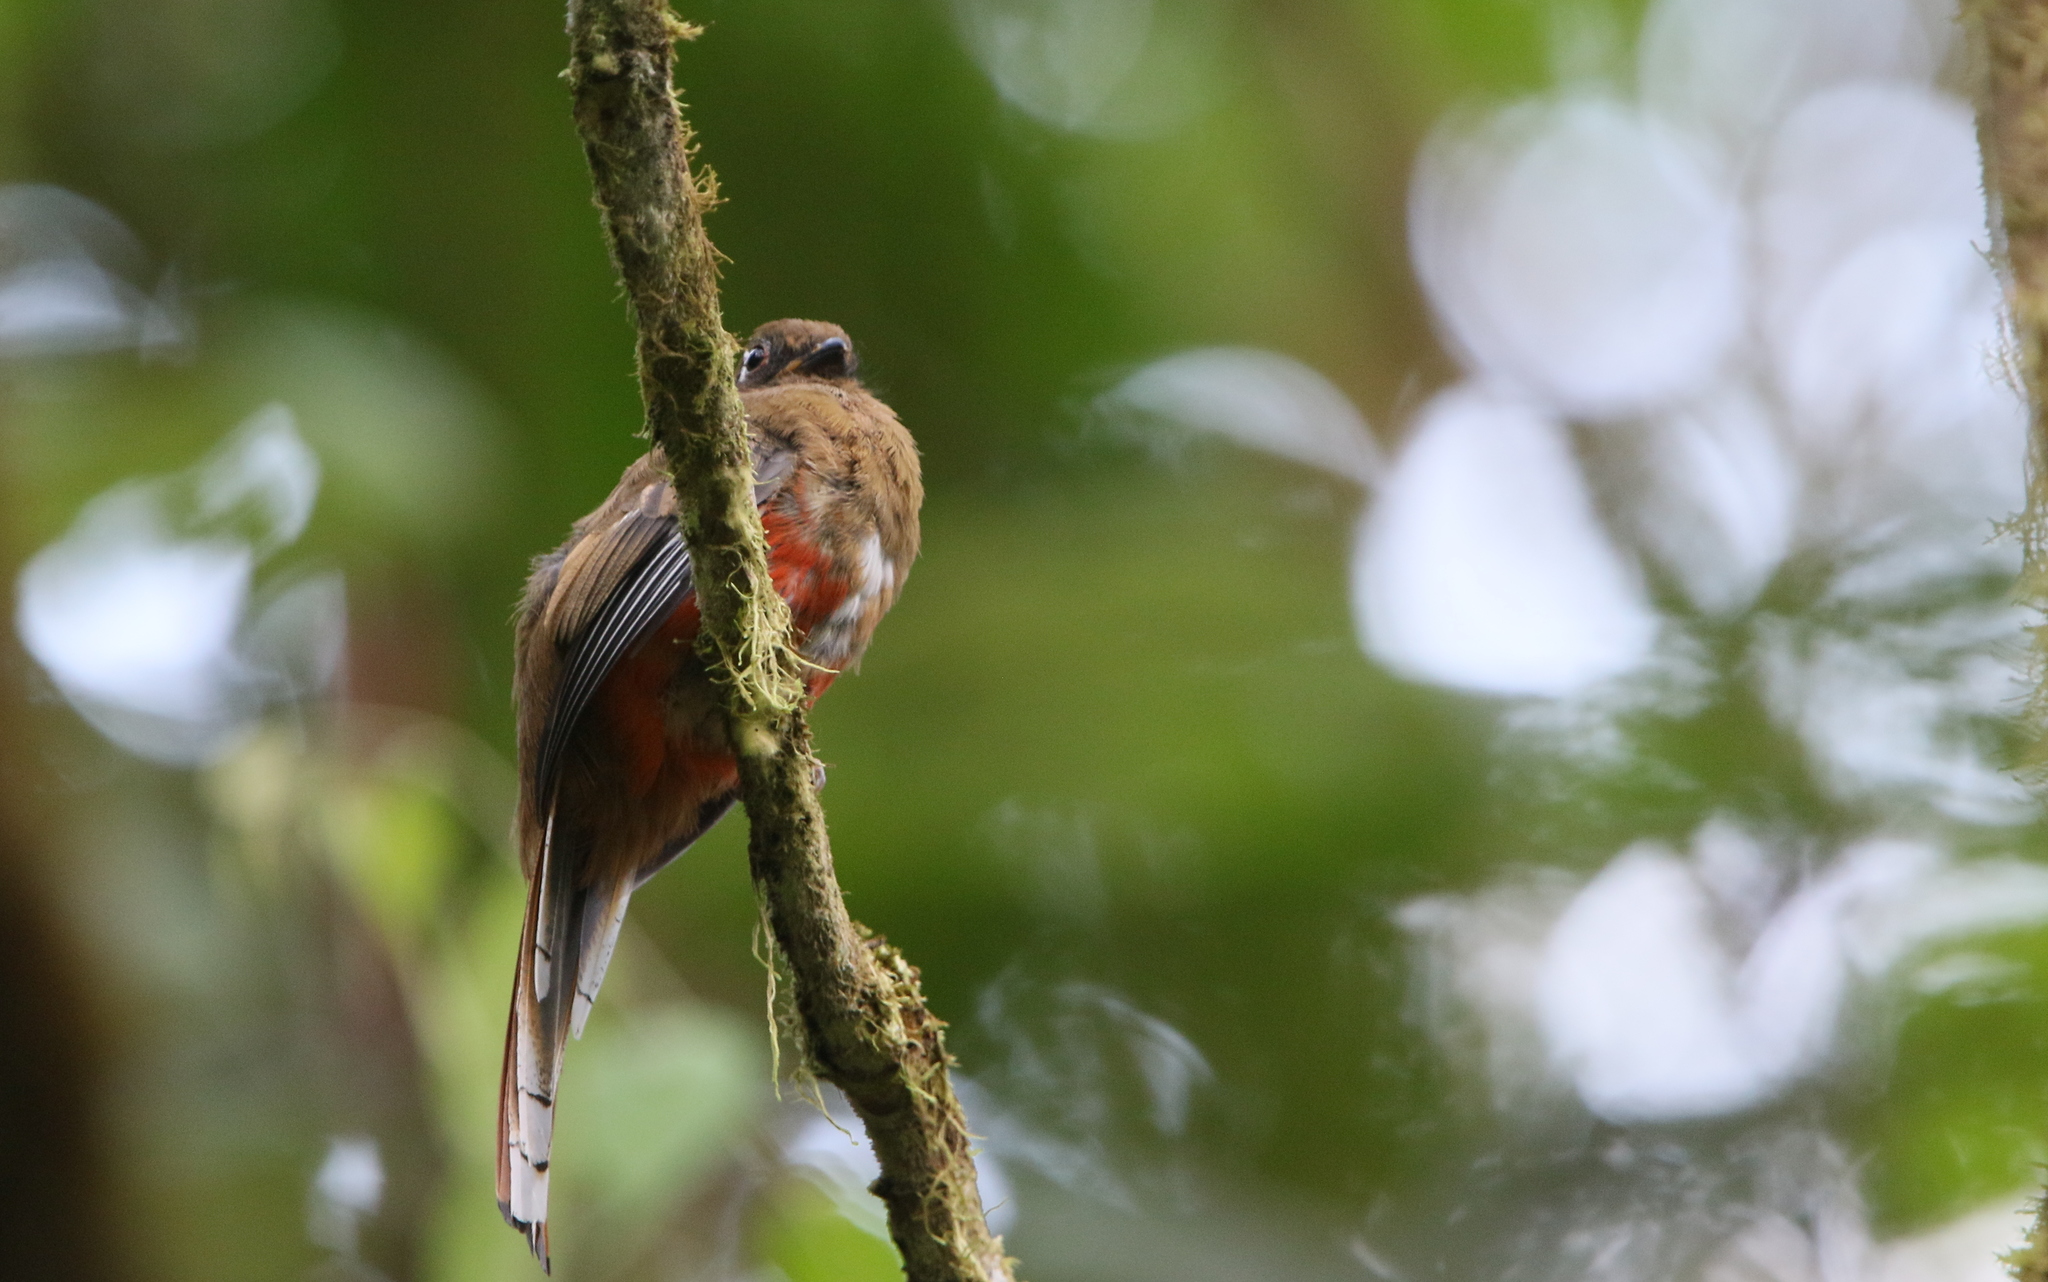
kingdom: Animalia
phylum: Chordata
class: Aves
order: Trogoniformes
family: Trogonidae
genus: Trogon
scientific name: Trogon collaris
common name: Collared trogon
